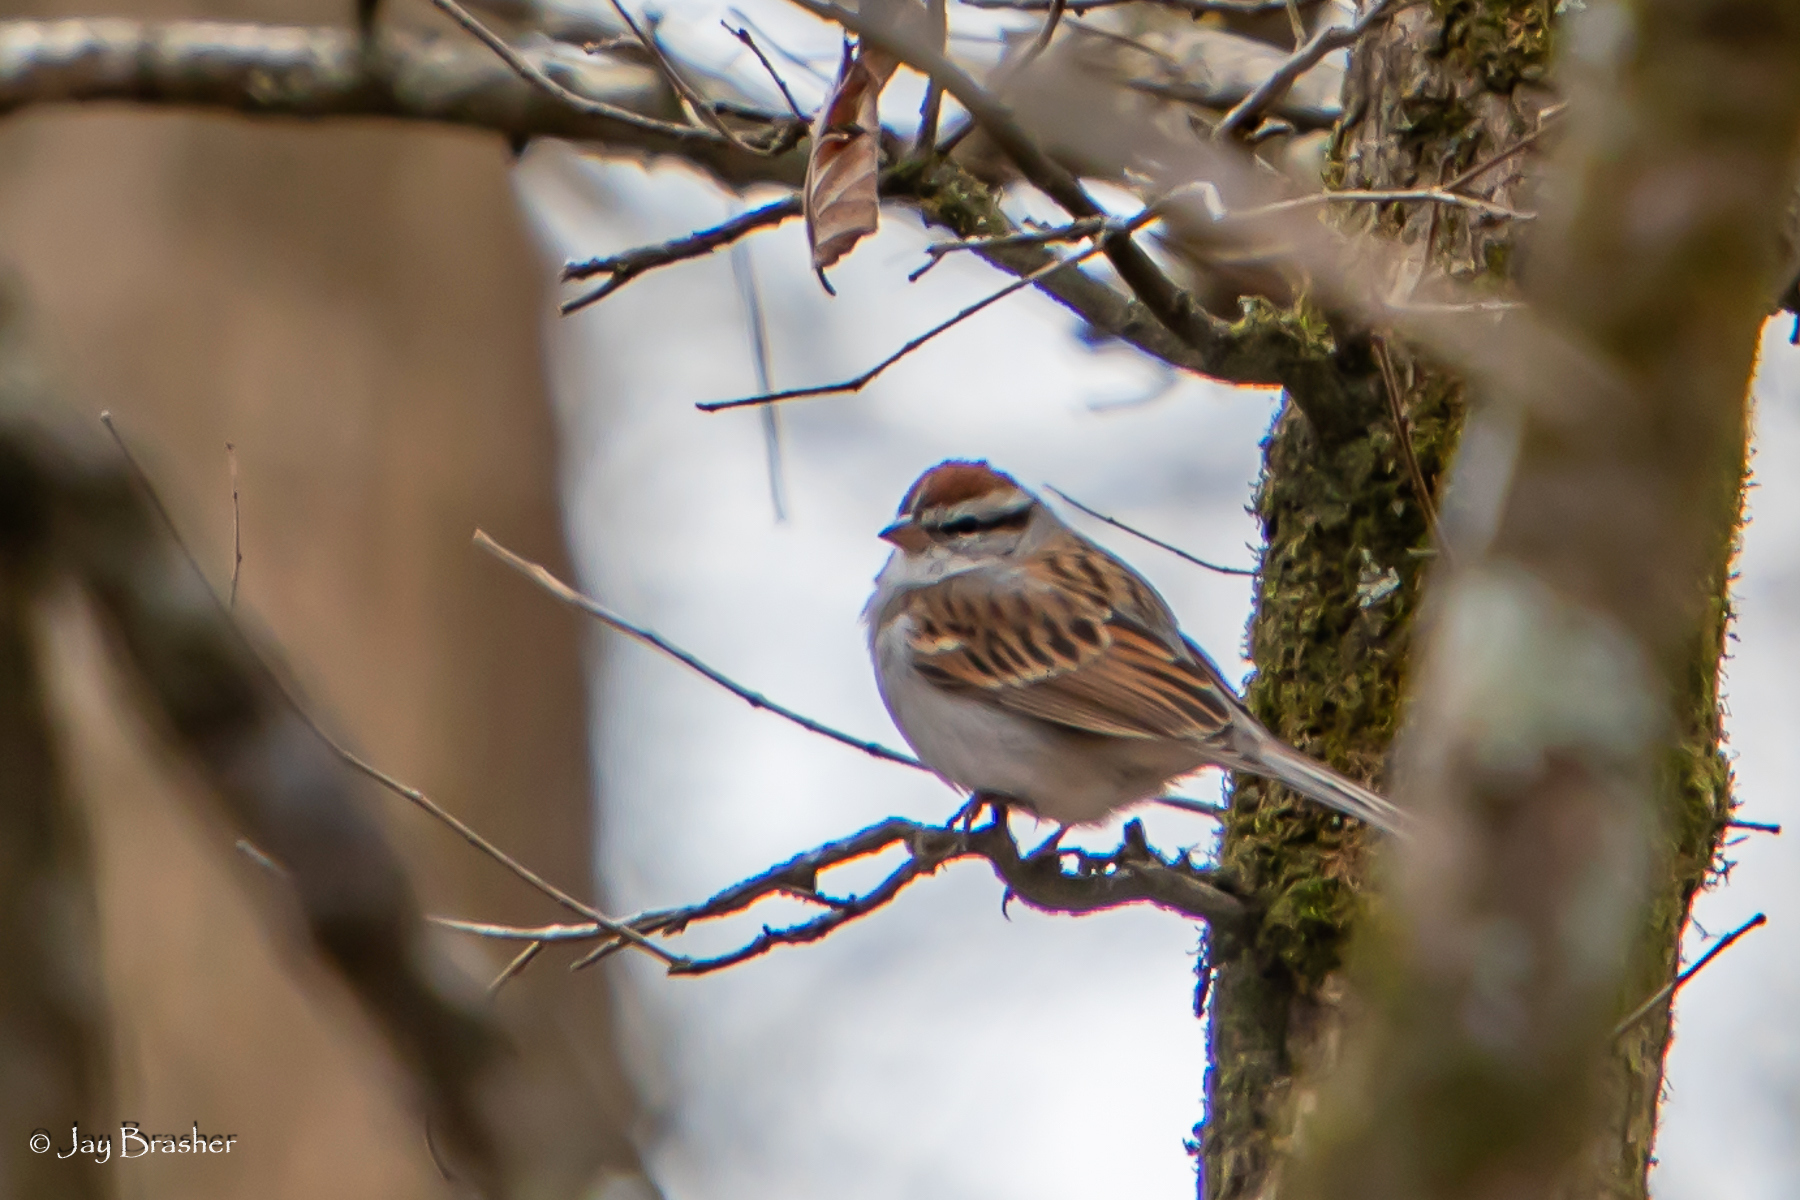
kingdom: Animalia
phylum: Chordata
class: Aves
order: Passeriformes
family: Passerellidae
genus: Spizella
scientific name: Spizella passerina
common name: Chipping sparrow
